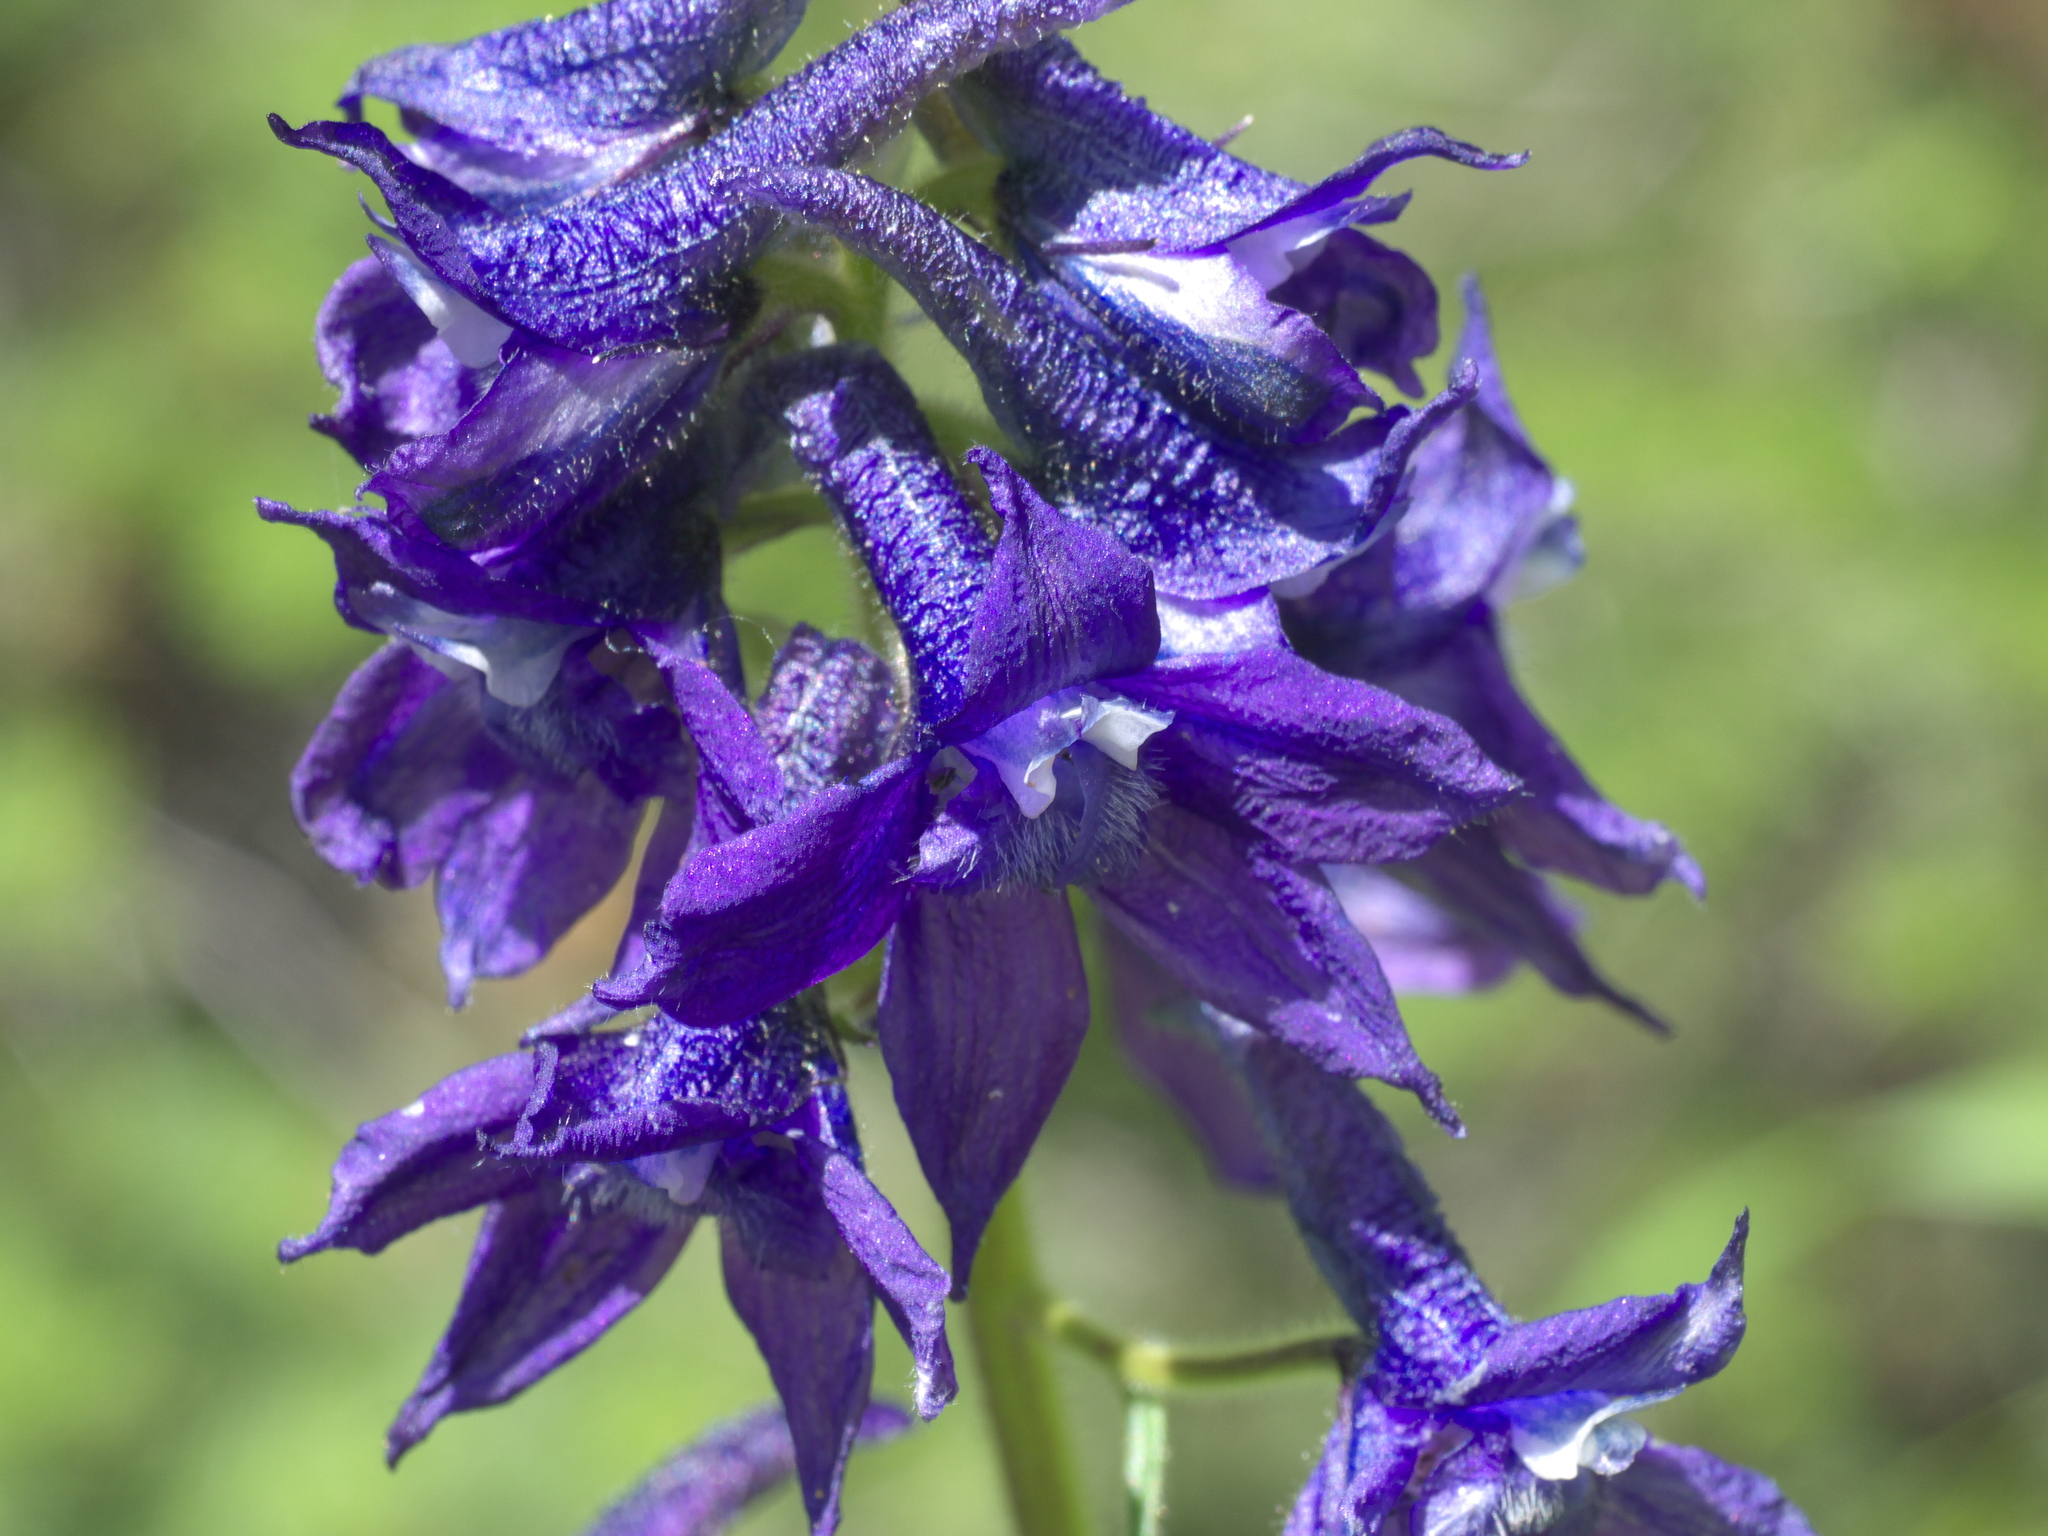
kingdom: Plantae
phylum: Tracheophyta
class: Magnoliopsida
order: Ranunculales
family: Ranunculaceae
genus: Delphinium
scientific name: Delphinium barbeyi
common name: Subalpine larkspur
